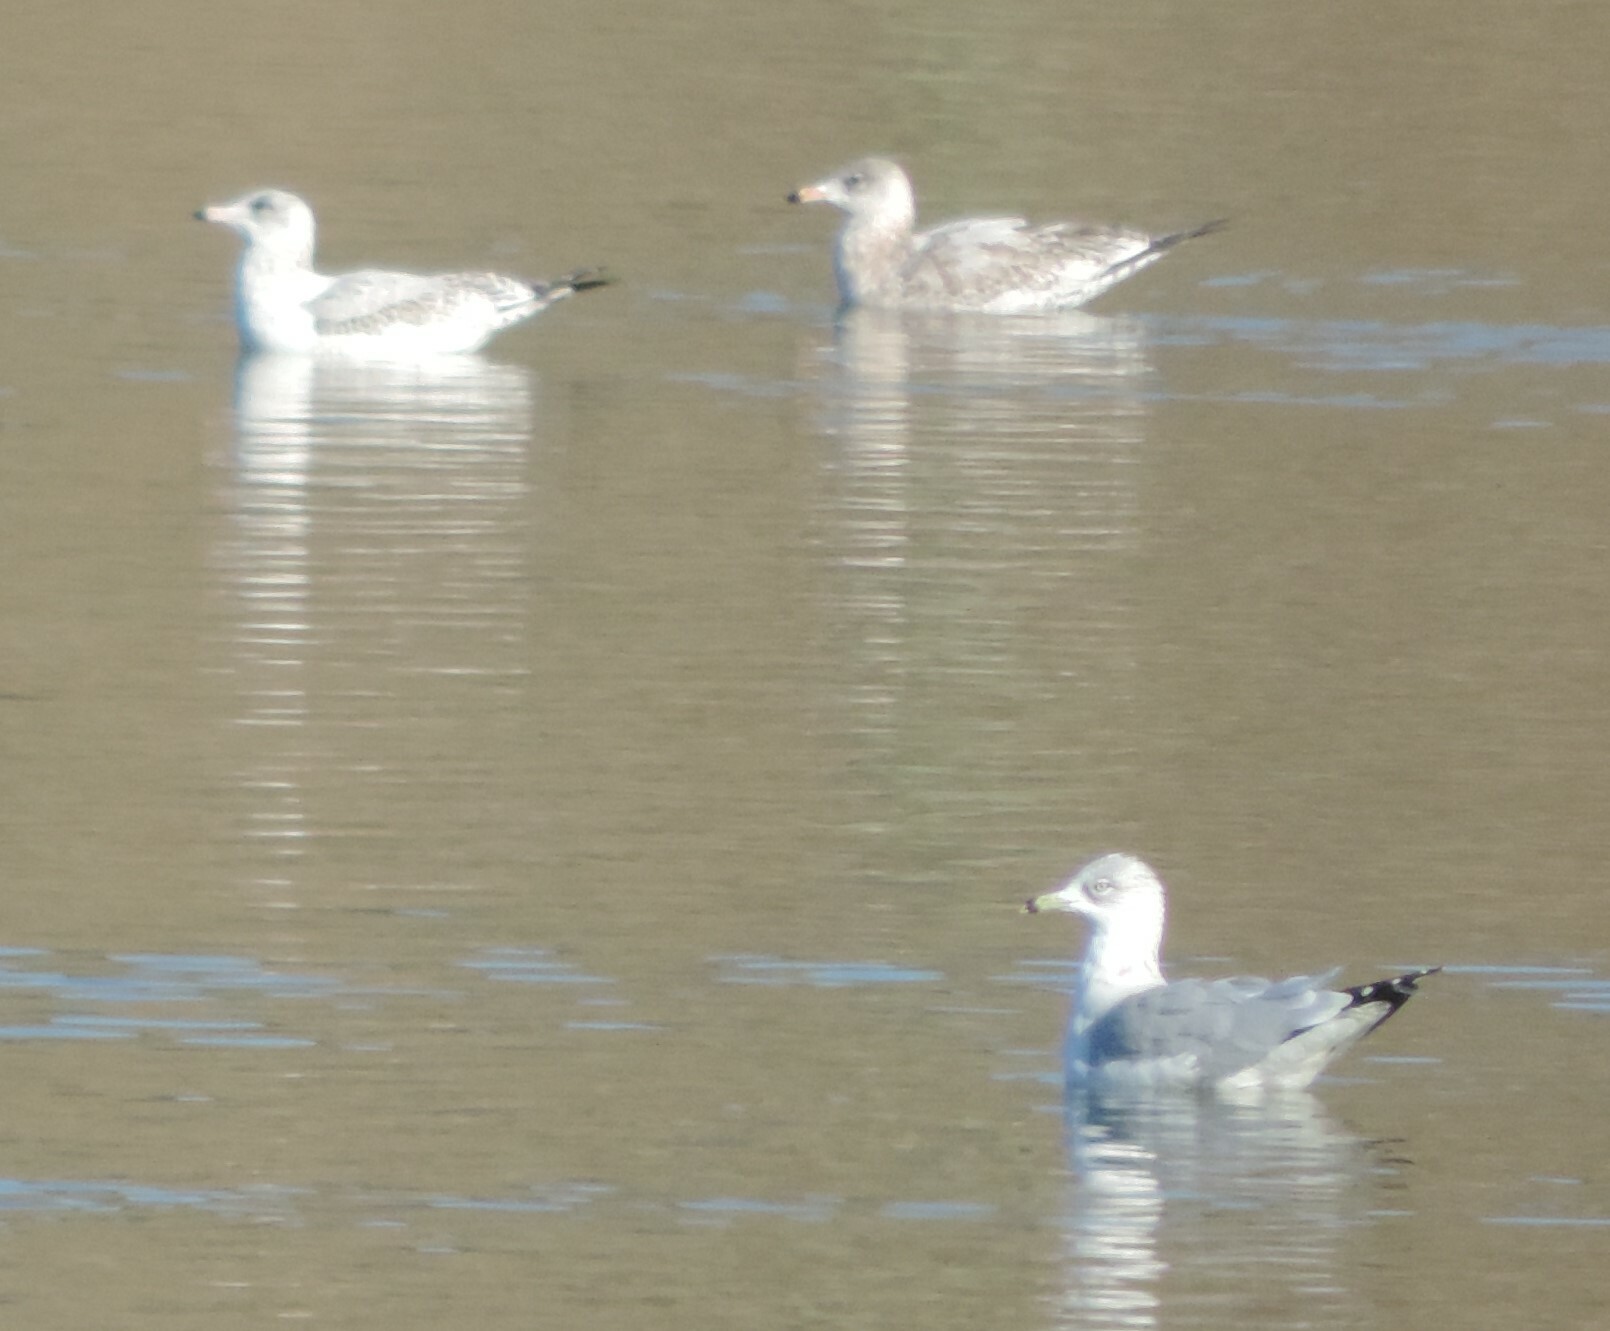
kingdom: Animalia
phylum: Chordata
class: Aves
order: Charadriiformes
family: Laridae
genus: Larus
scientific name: Larus delawarensis
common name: Ring-billed gull
